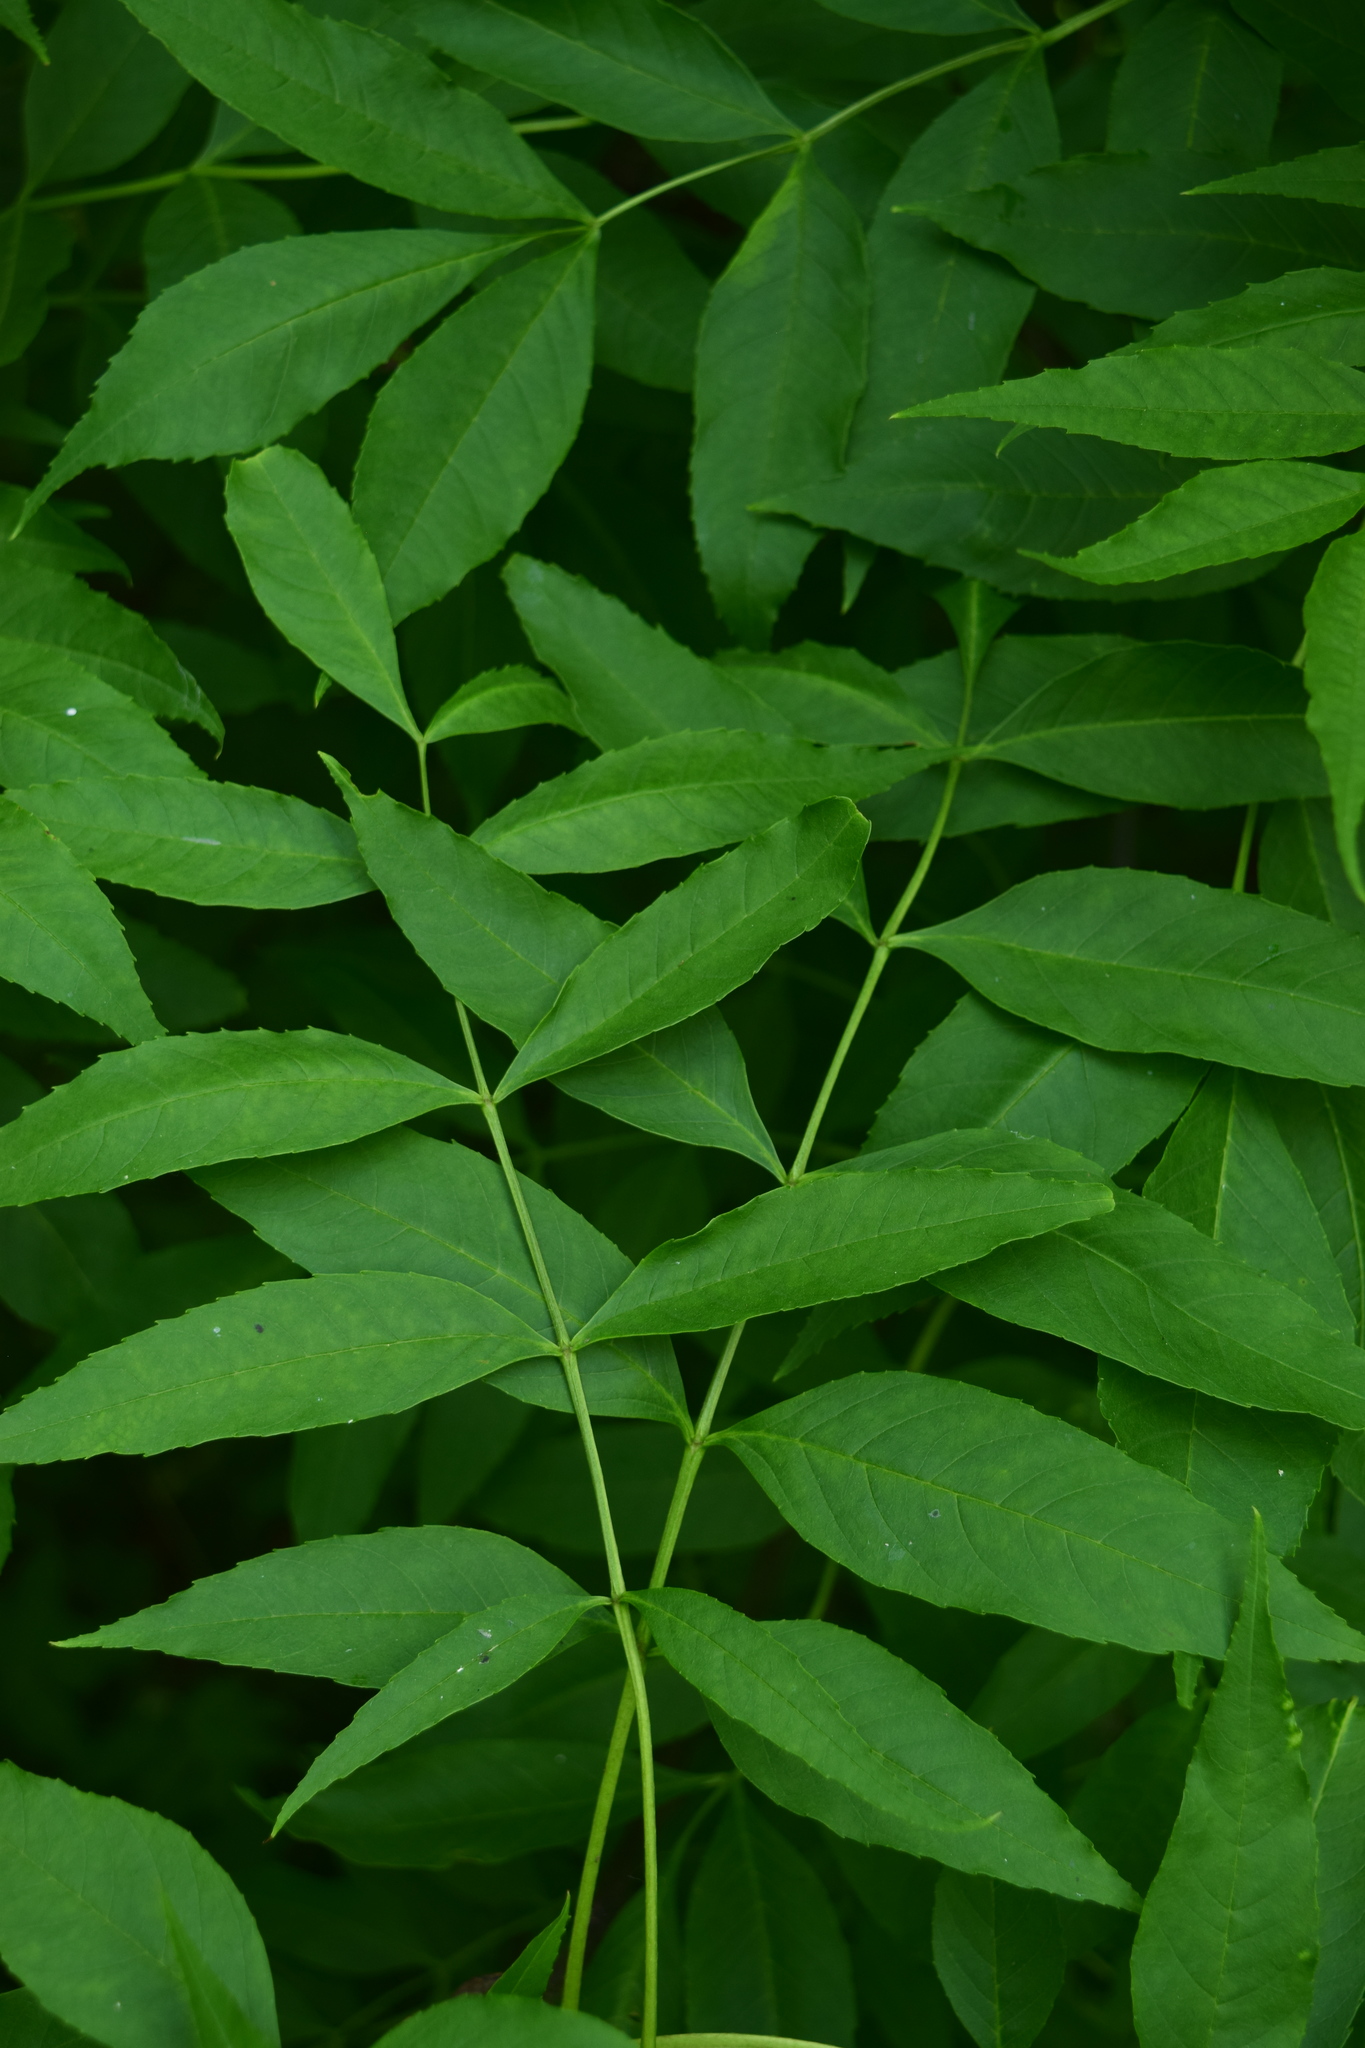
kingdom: Plantae
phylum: Tracheophyta
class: Magnoliopsida
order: Lamiales
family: Oleaceae
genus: Fraxinus
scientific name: Fraxinus excelsior
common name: European ash
